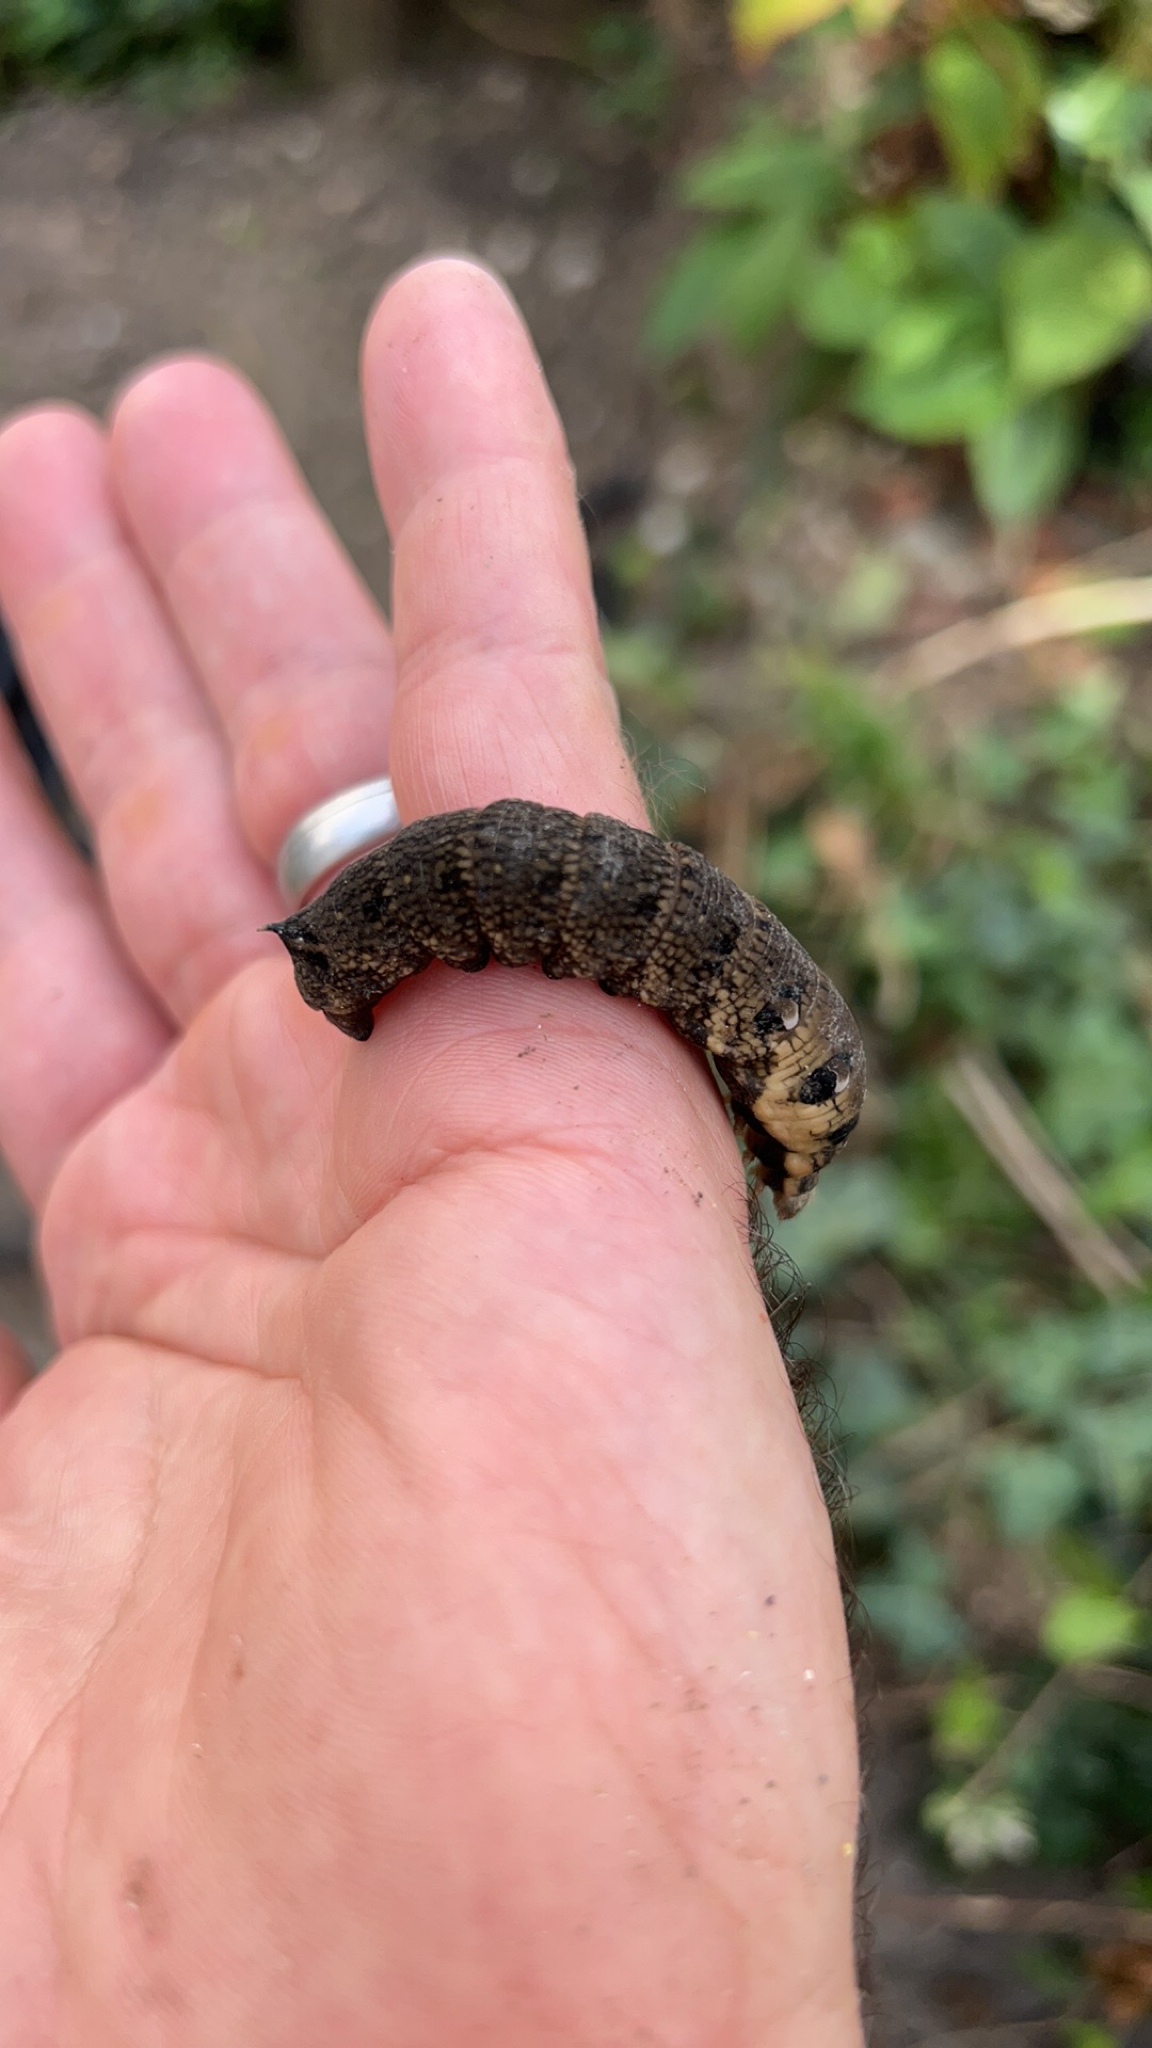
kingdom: Animalia
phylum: Arthropoda
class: Insecta
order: Lepidoptera
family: Sphingidae
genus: Deilephila
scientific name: Deilephila elpenor
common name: Elephant hawk-moth
